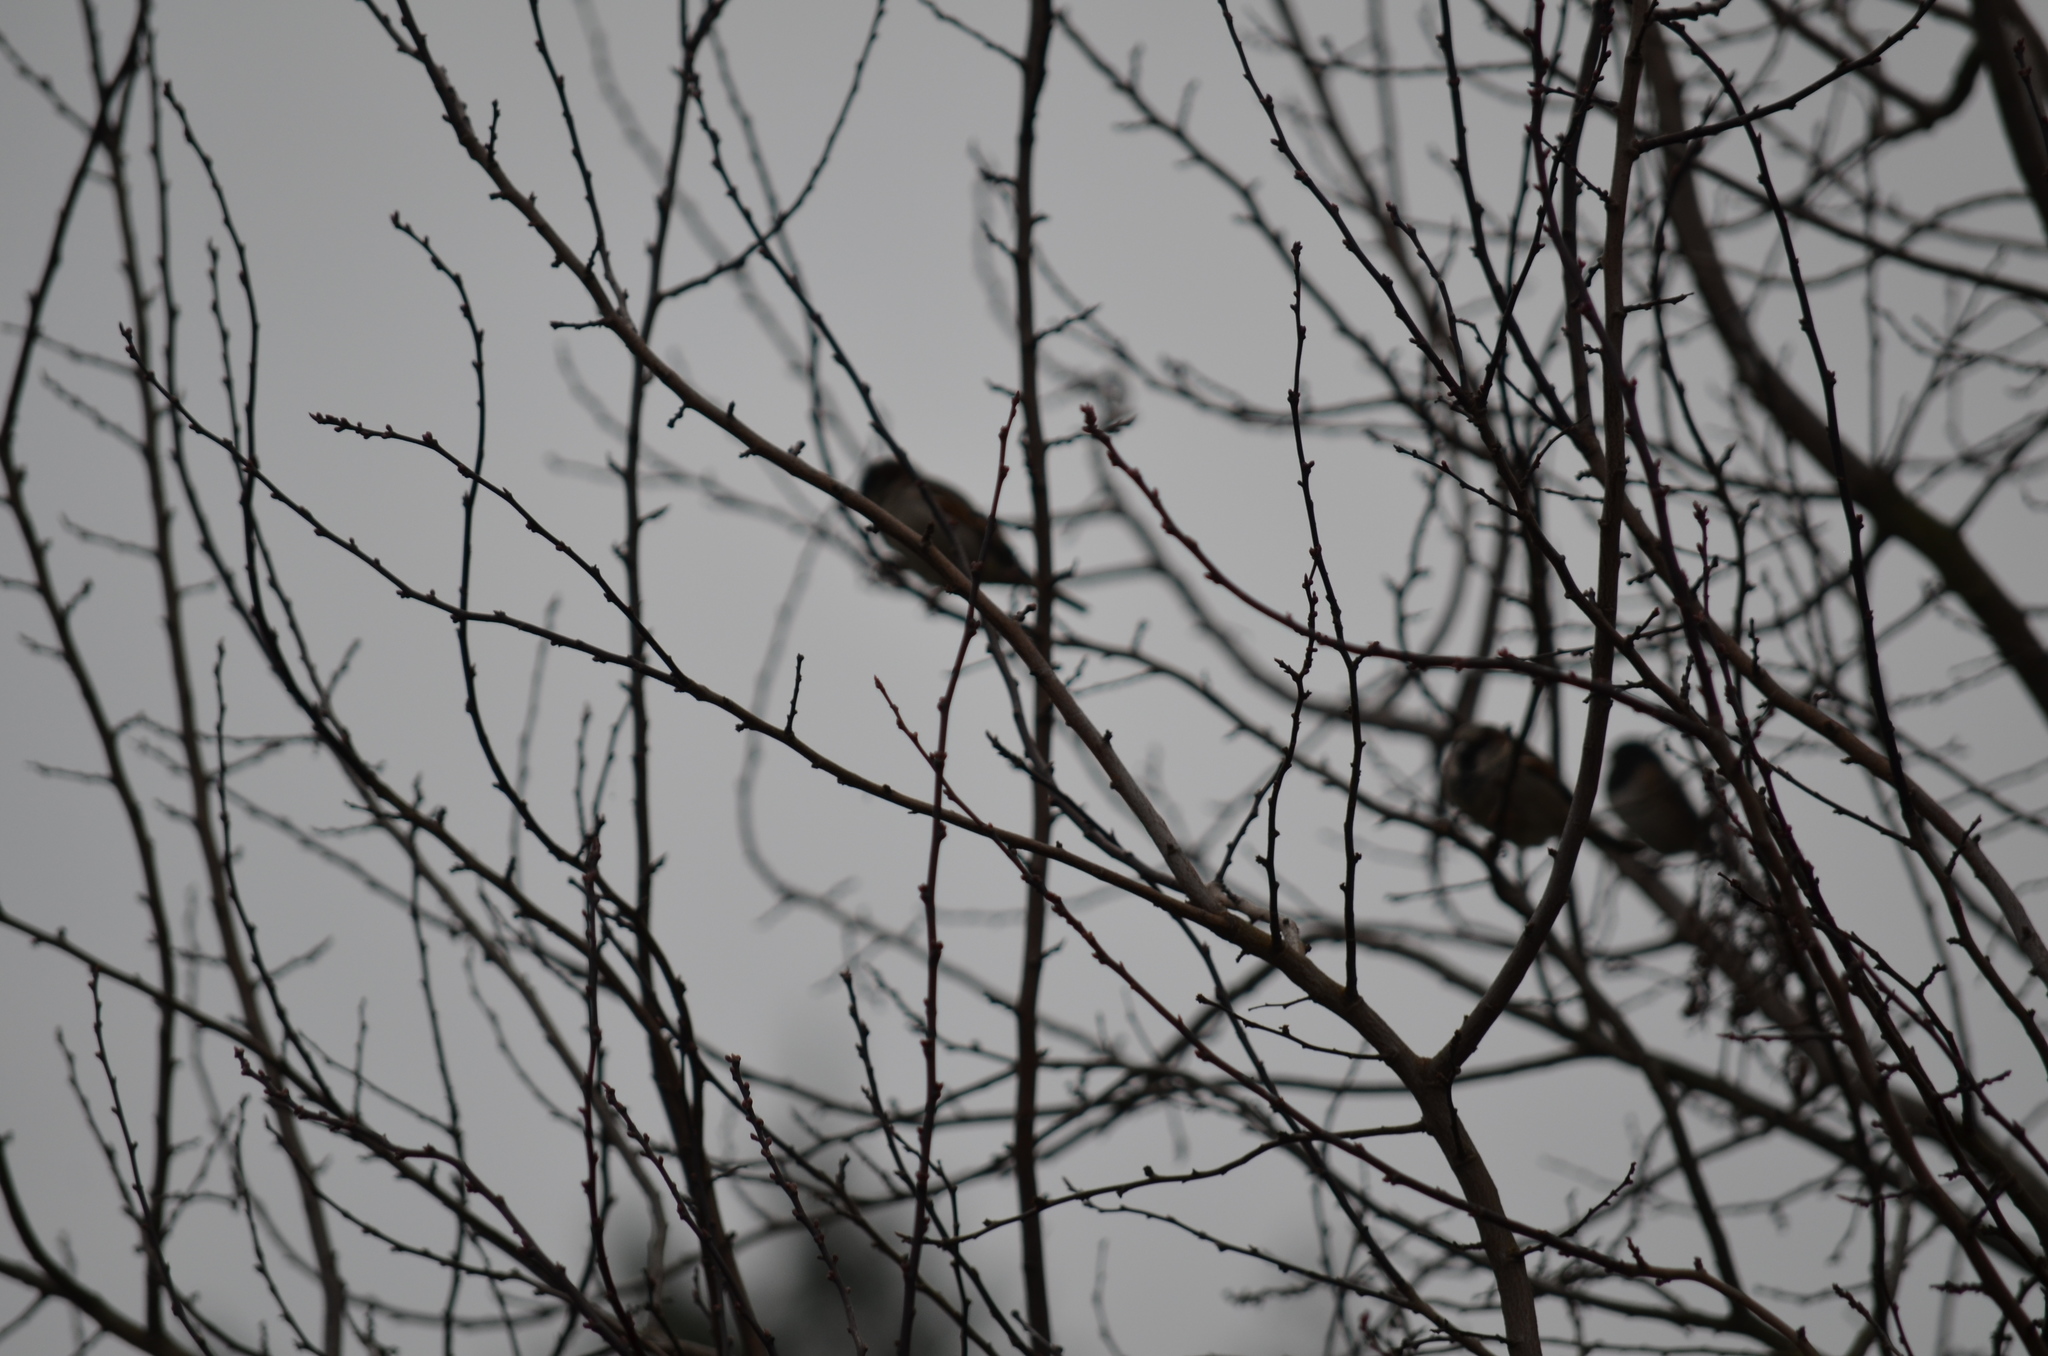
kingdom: Animalia
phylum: Chordata
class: Aves
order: Passeriformes
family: Passeridae
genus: Passer
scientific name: Passer domesticus
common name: House sparrow
